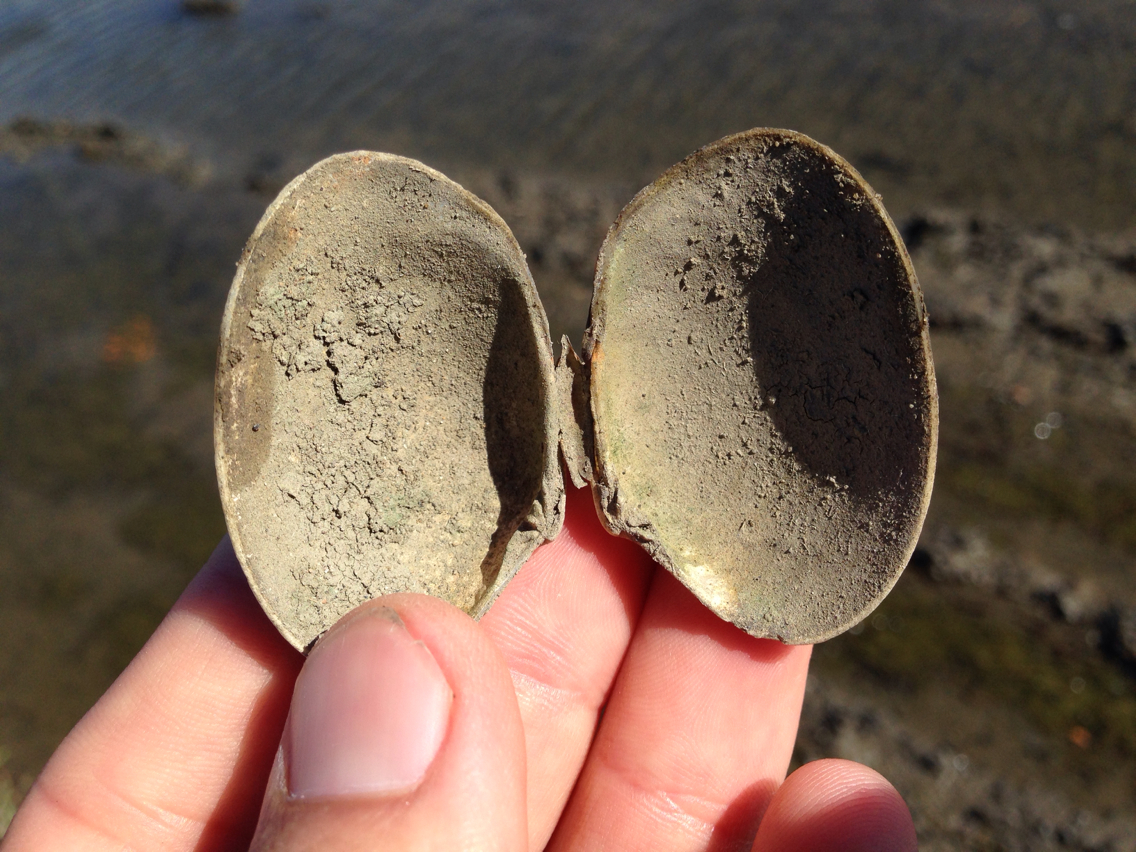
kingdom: Animalia
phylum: Mollusca
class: Bivalvia
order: Venerida
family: Veneridae
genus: Ruditapes
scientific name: Ruditapes philippinarum
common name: Manila clam
